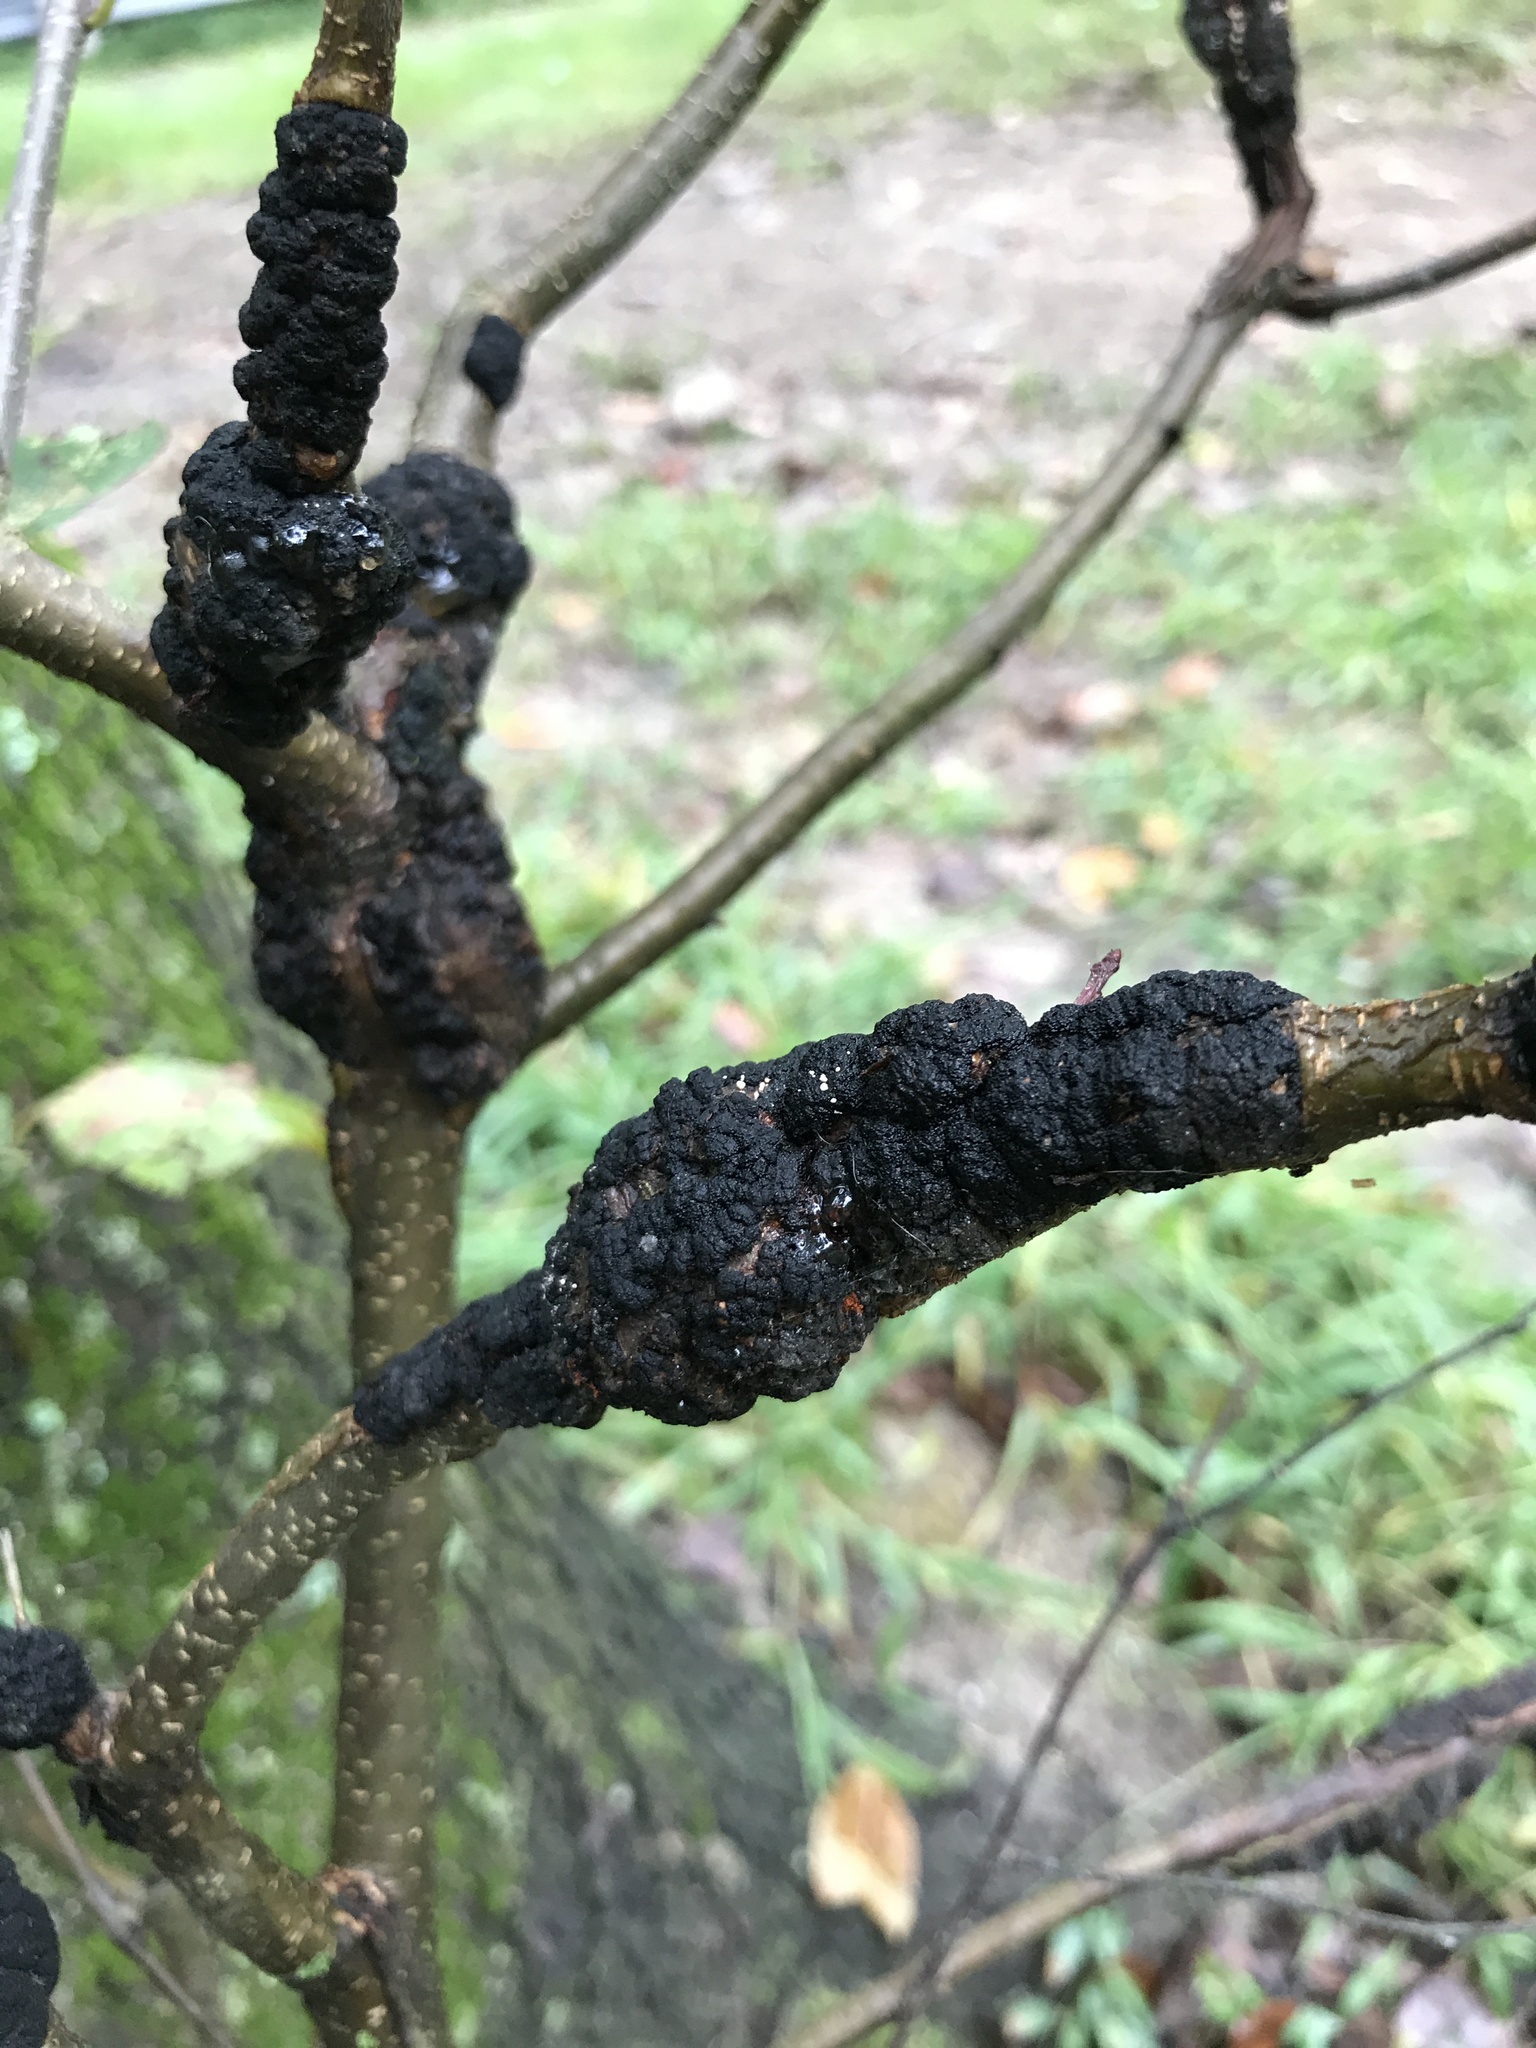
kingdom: Fungi
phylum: Ascomycota
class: Dothideomycetes
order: Venturiales
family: Venturiaceae
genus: Apiosporina
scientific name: Apiosporina morbosa
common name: Black knot
